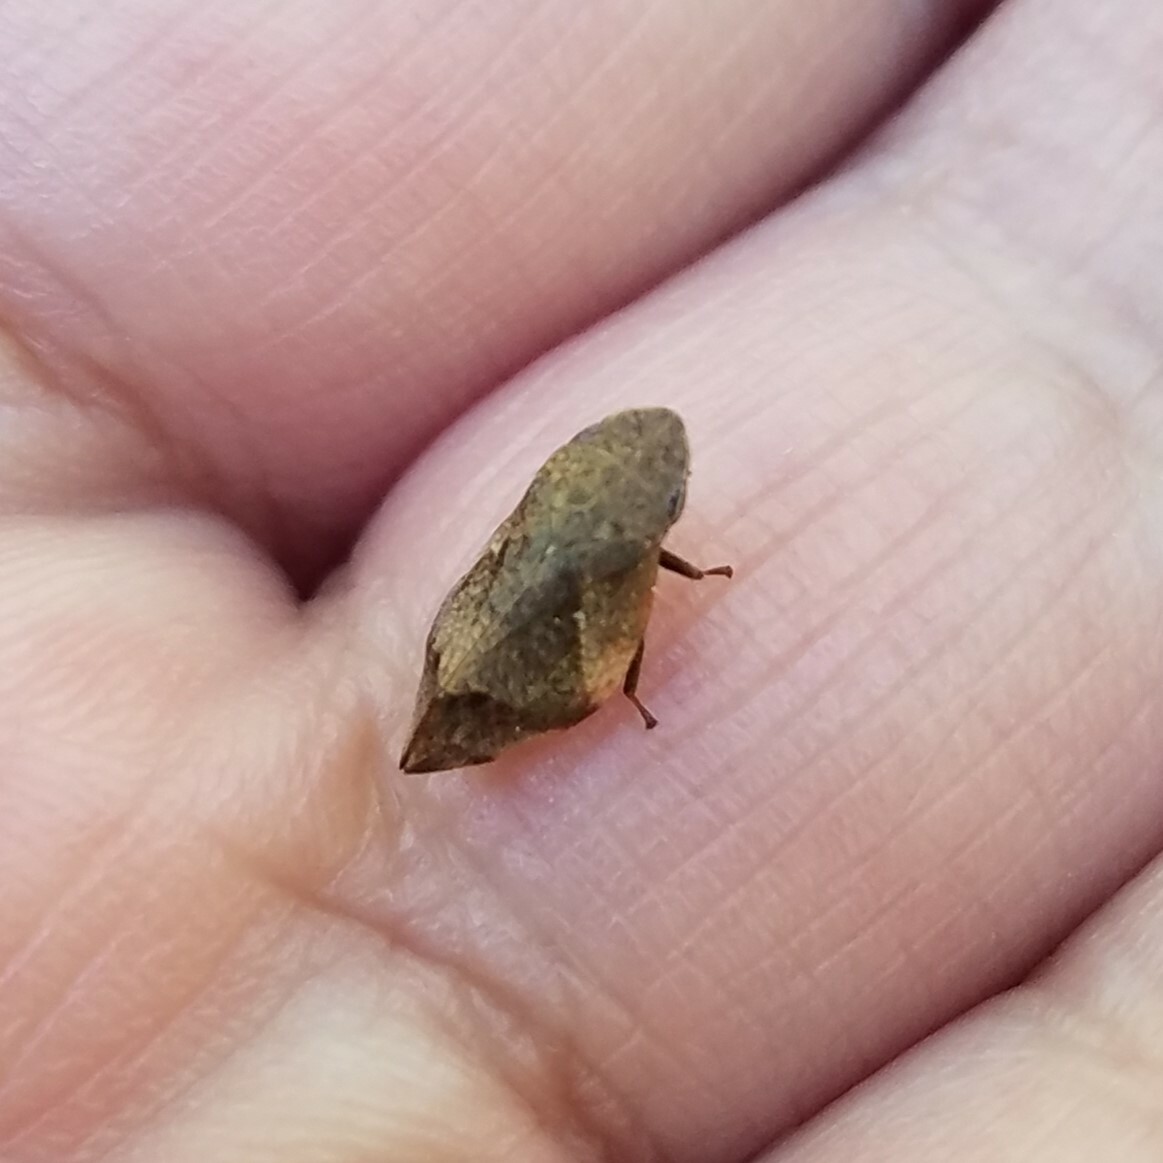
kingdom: Animalia
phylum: Arthropoda
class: Insecta
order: Hemiptera
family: Aphrophoridae
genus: Lepyronia
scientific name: Lepyronia quadrangularis
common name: Diamond-backed spittlebug
